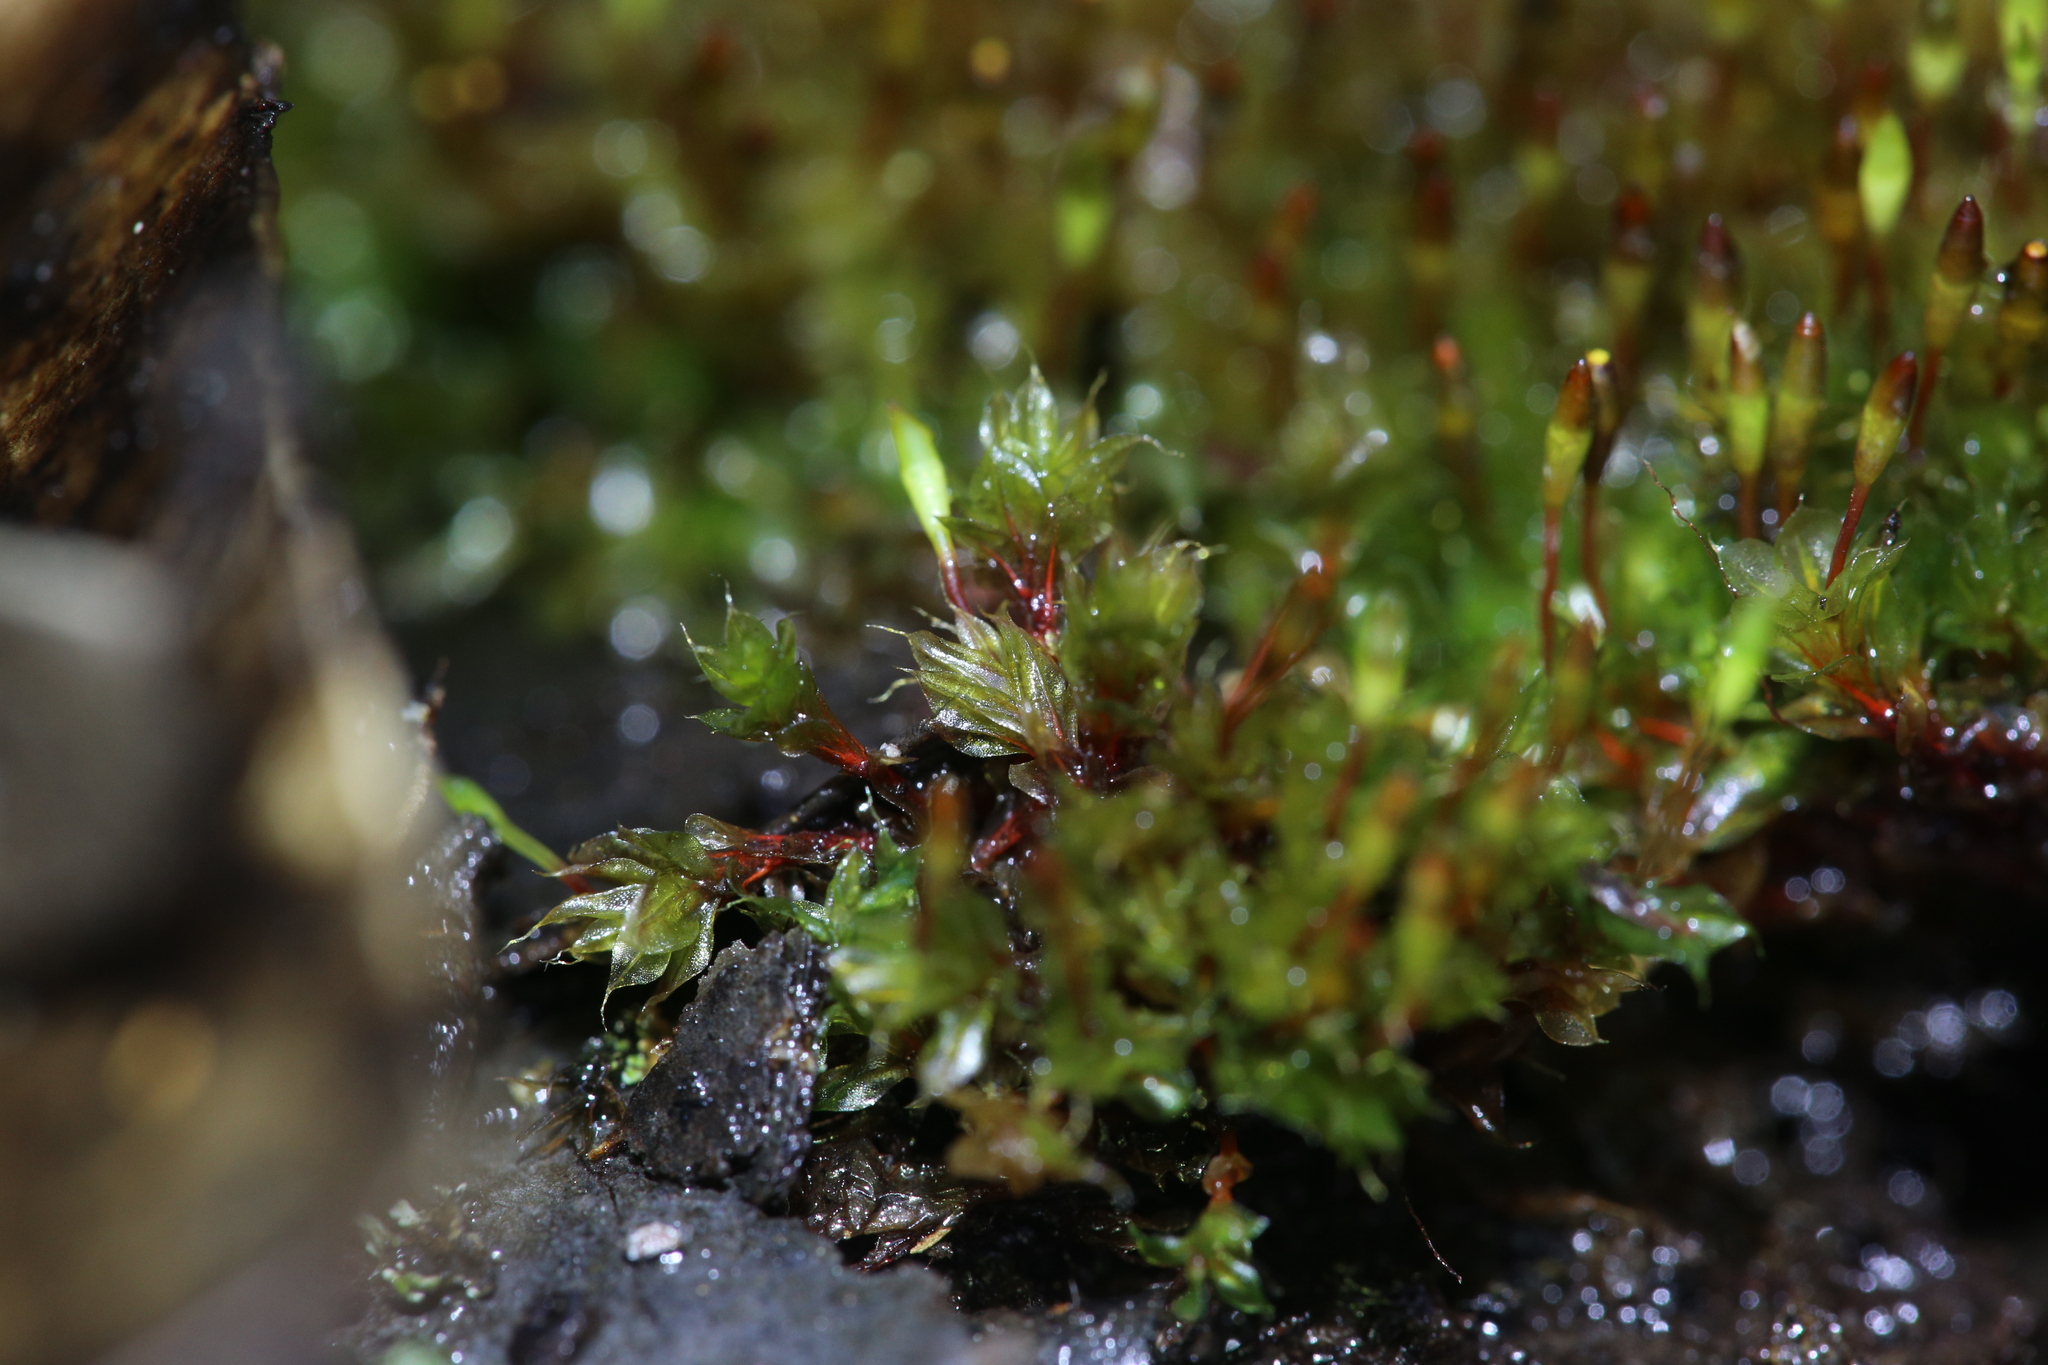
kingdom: Plantae
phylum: Bryophyta
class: Bryopsida
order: Splachnales
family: Splachnaceae
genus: Tayloria
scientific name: Tayloria octoblephara
